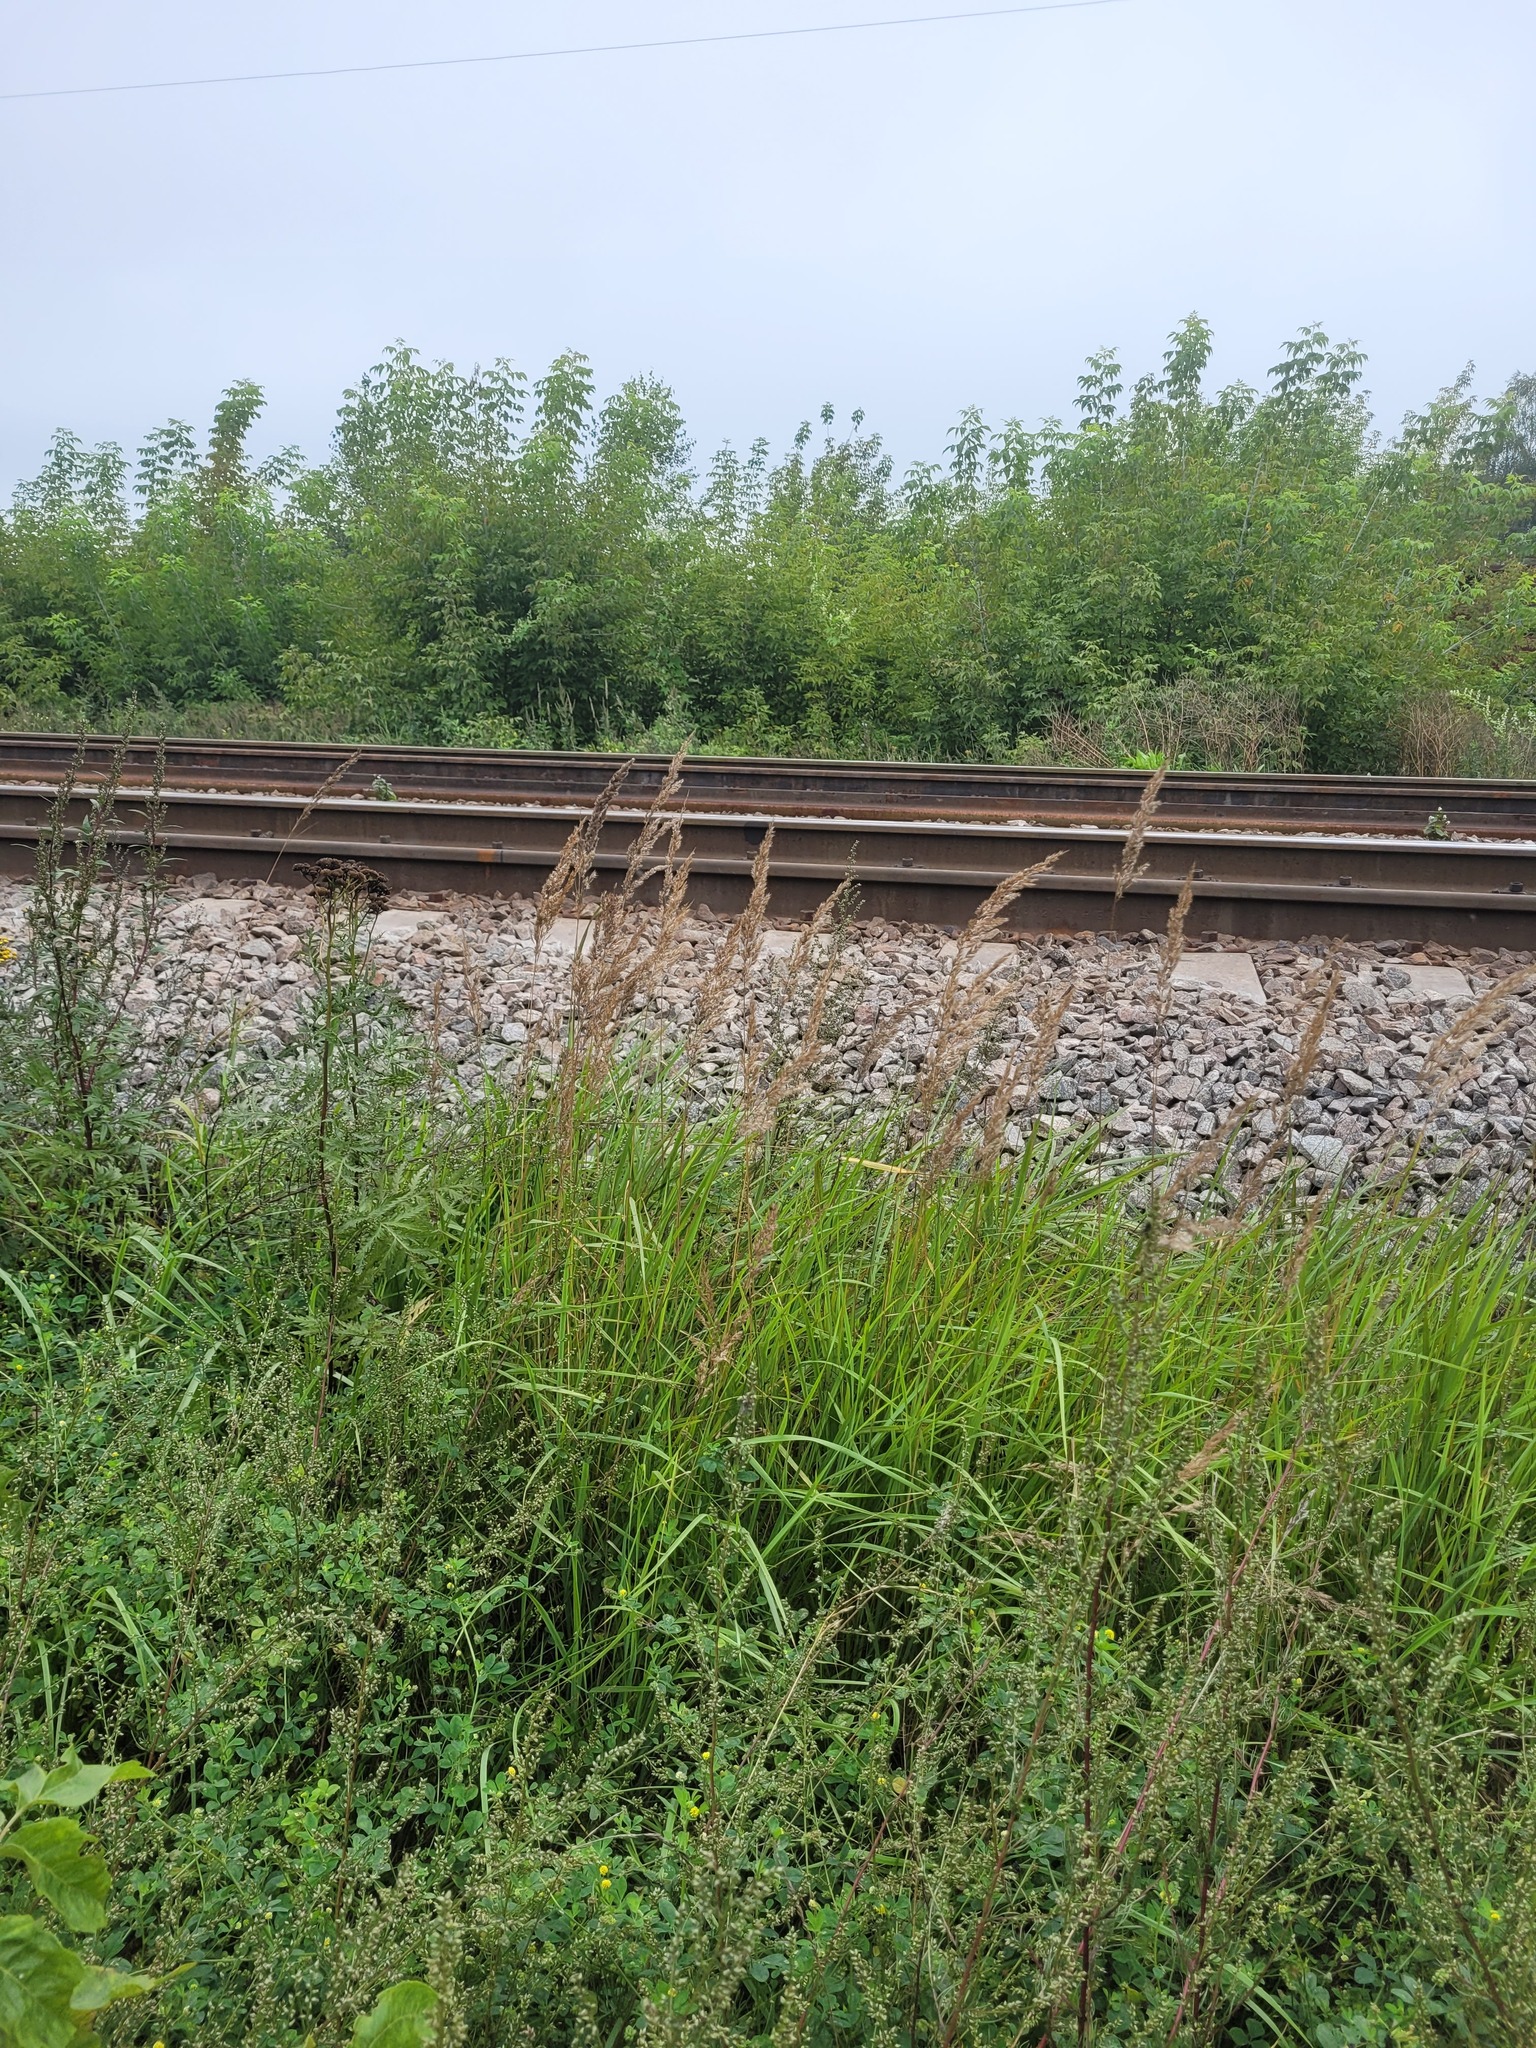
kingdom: Plantae
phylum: Tracheophyta
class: Liliopsida
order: Poales
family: Poaceae
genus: Calamagrostis
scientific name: Calamagrostis epigejos
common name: Wood small-reed
